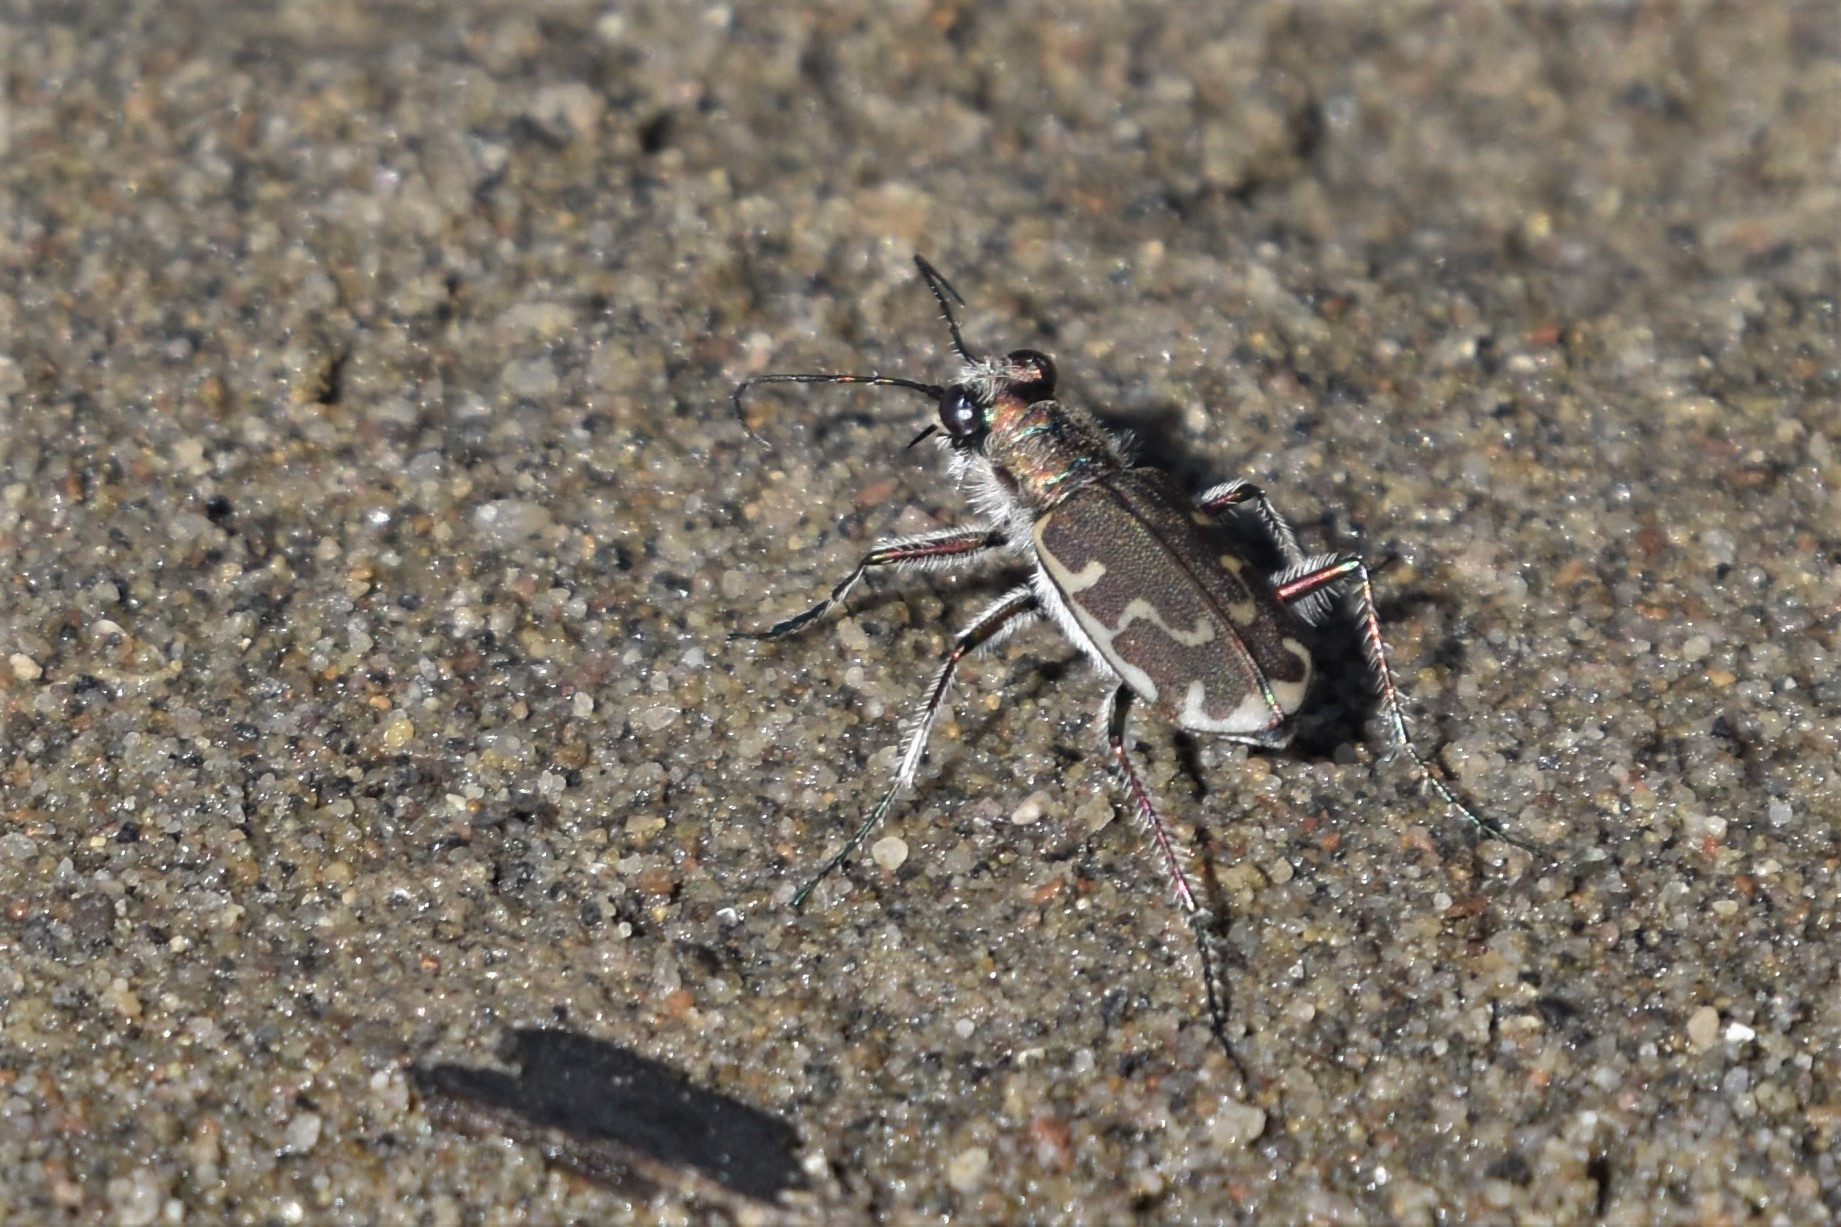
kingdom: Animalia
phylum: Arthropoda
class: Insecta
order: Coleoptera
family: Carabidae
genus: Cicindela
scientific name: Cicindela repanda
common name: Bronzed tiger beetle
